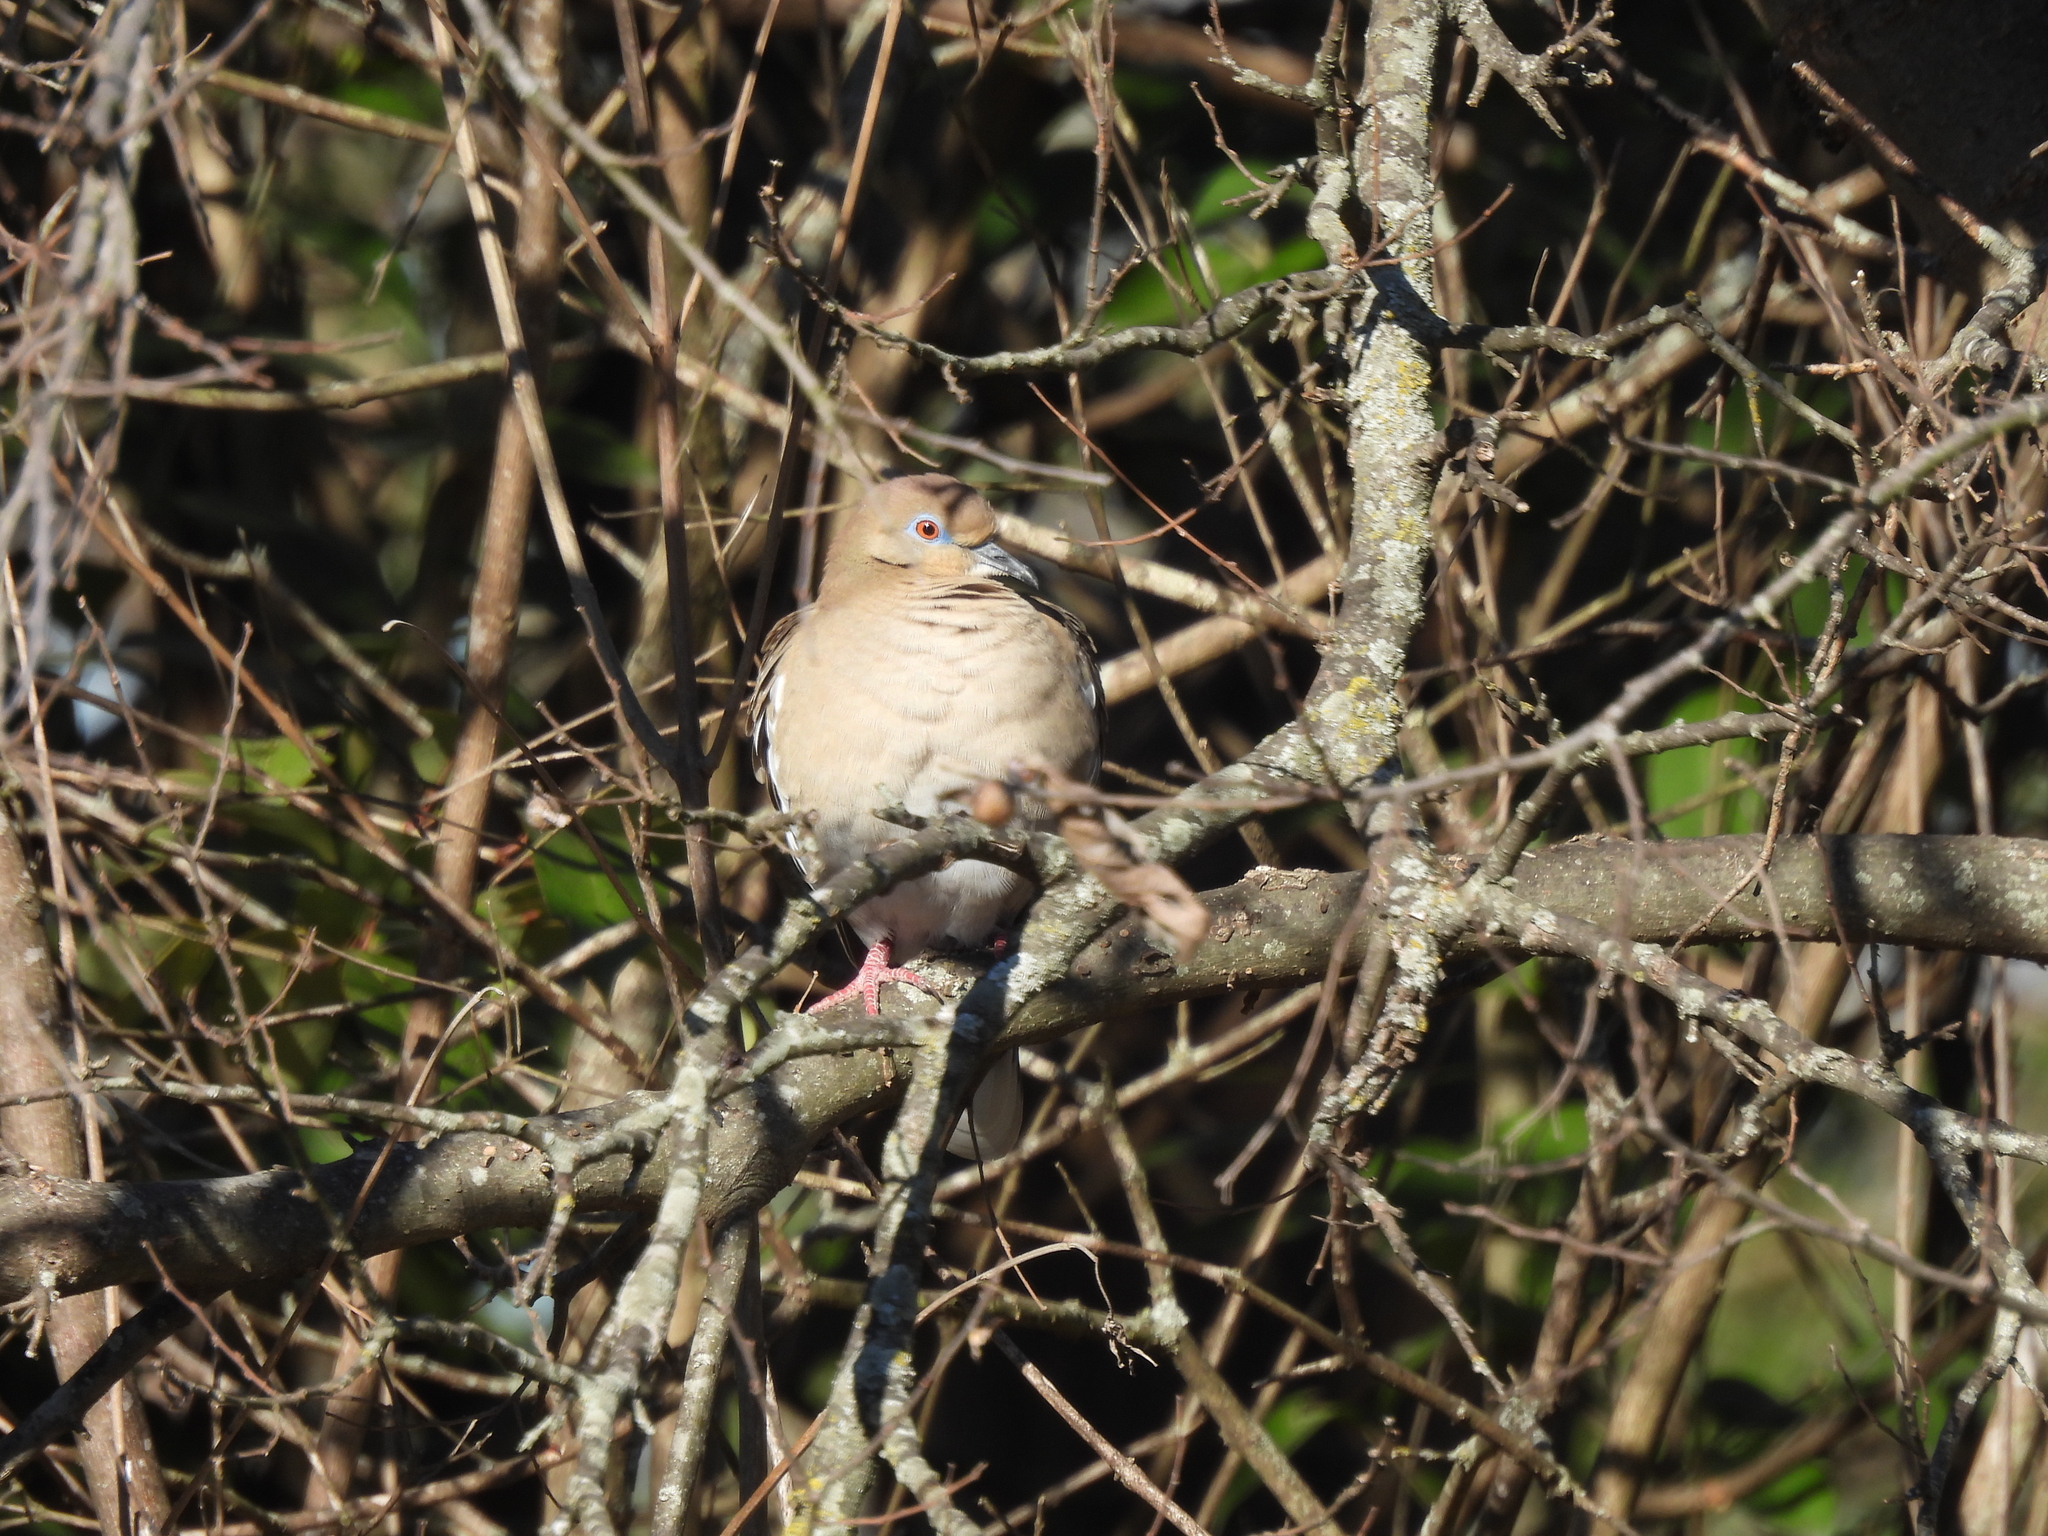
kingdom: Animalia
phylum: Chordata
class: Aves
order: Columbiformes
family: Columbidae
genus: Zenaida
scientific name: Zenaida macroura
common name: Mourning dove
